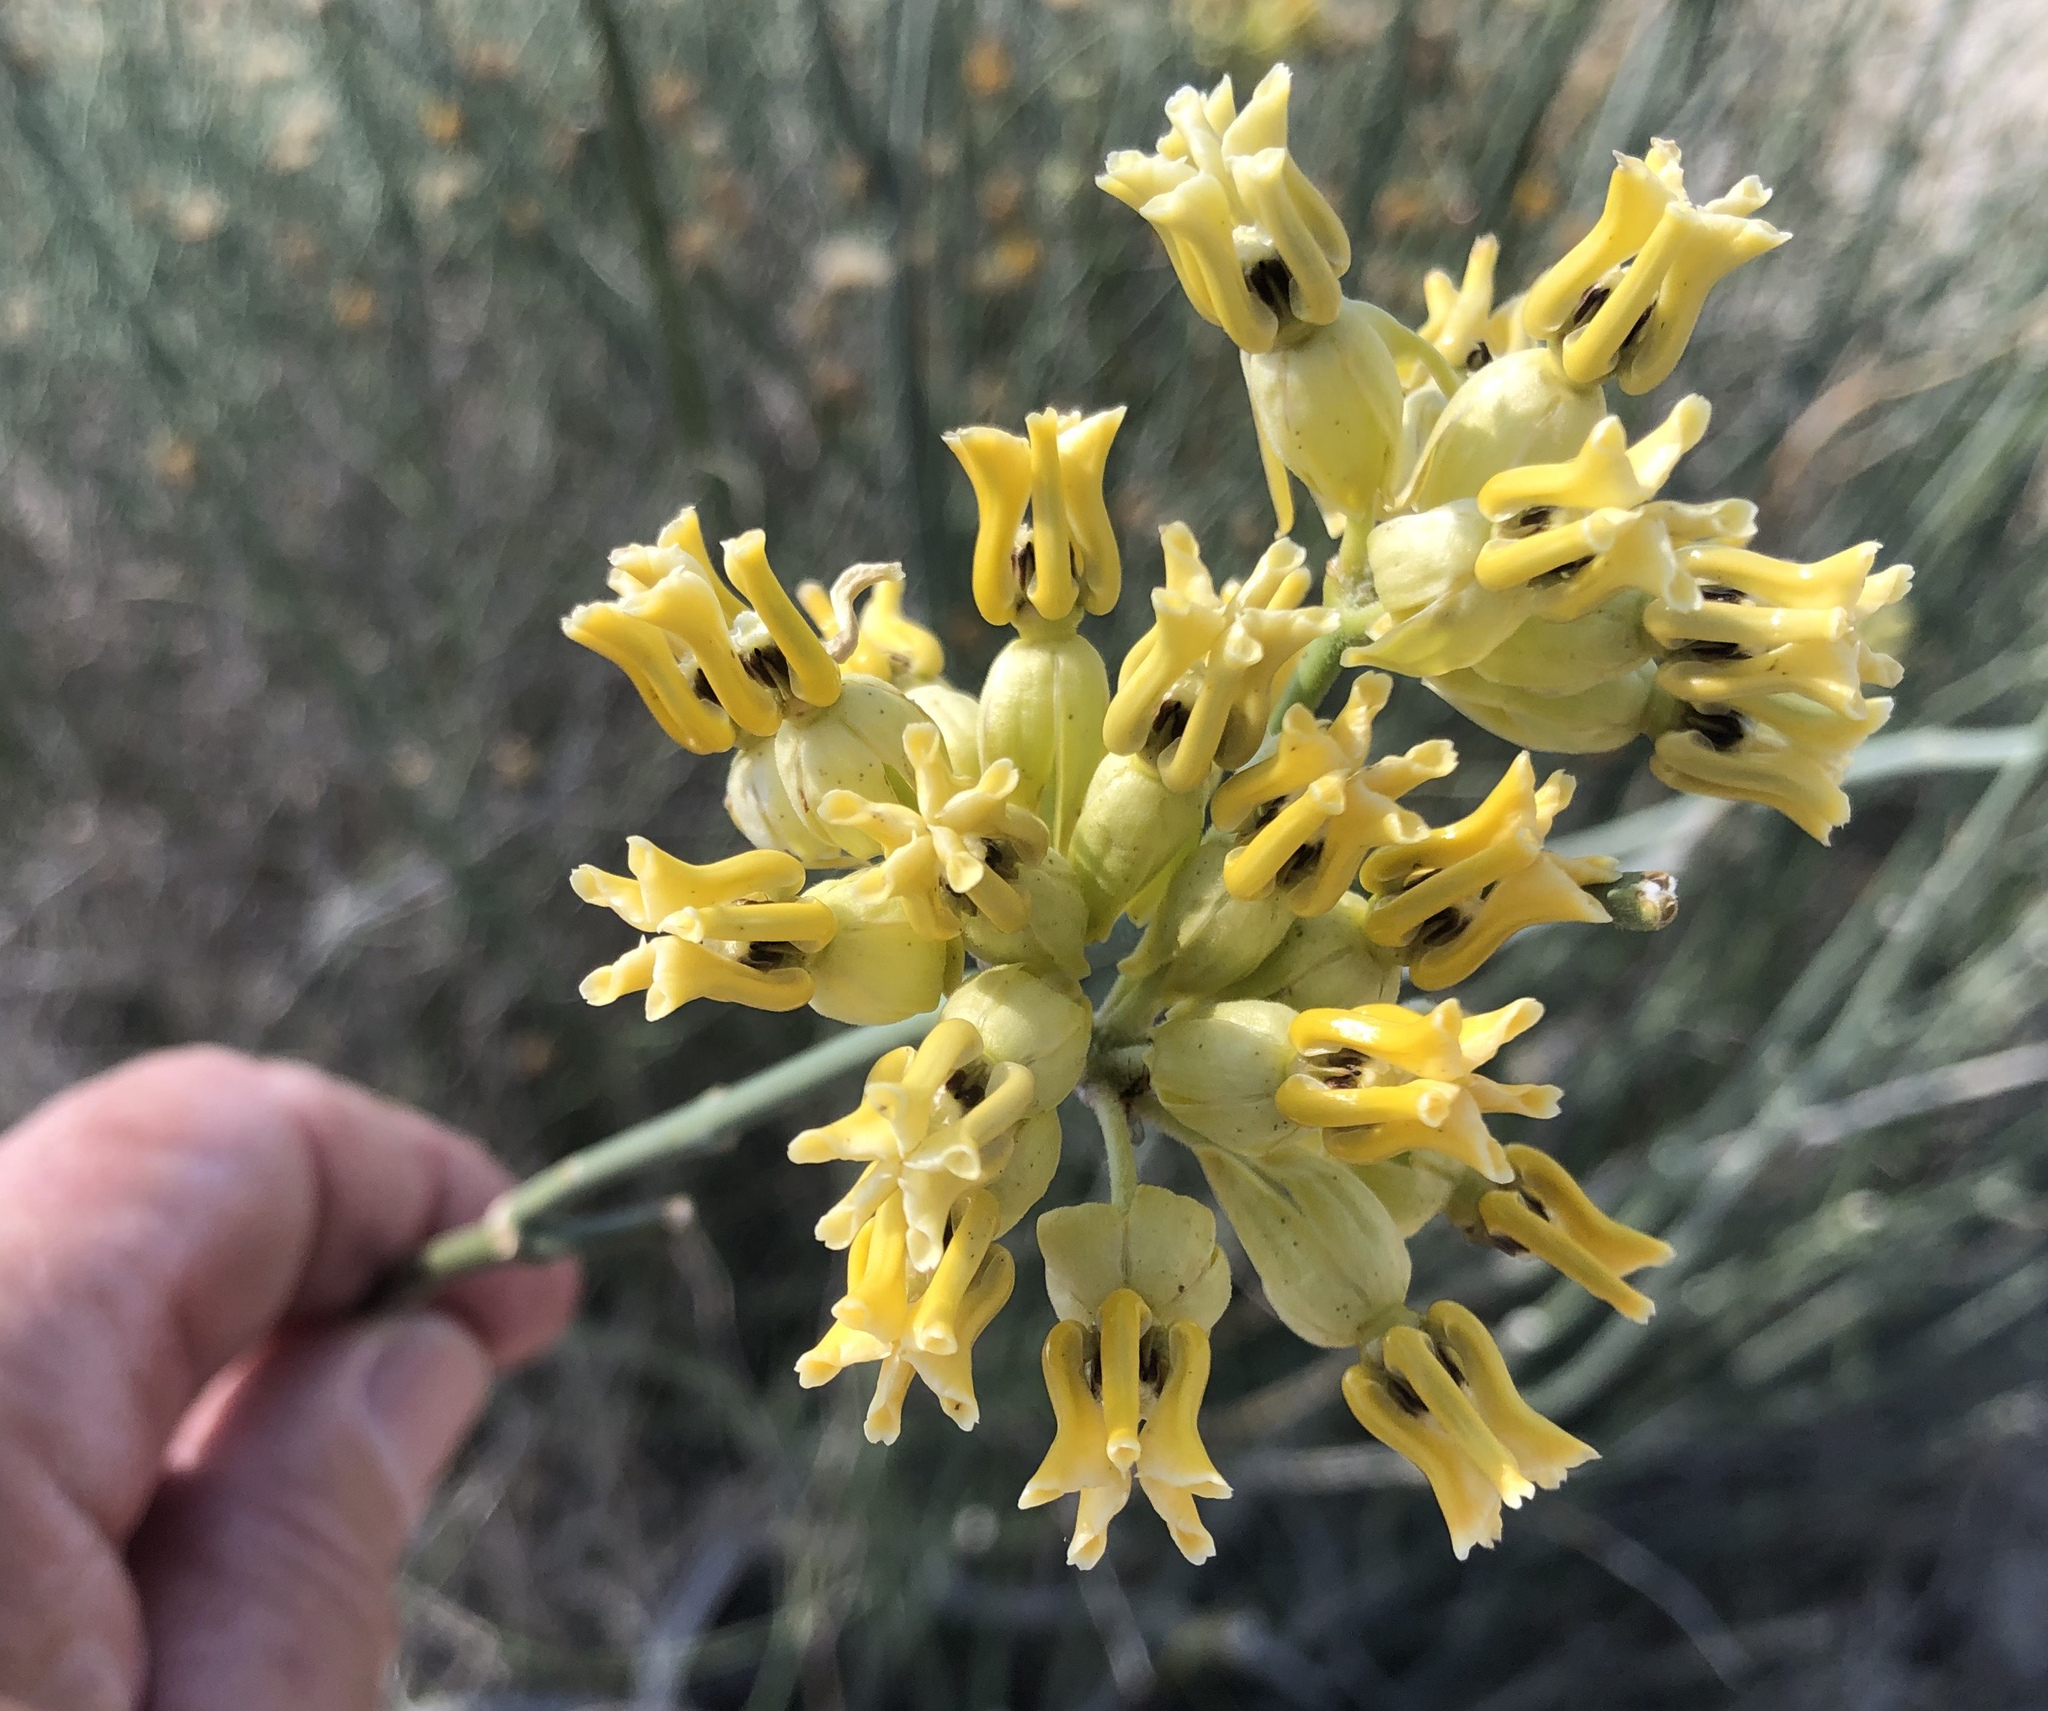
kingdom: Plantae
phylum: Tracheophyta
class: Magnoliopsida
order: Gentianales
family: Apocynaceae
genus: Asclepias
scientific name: Asclepias subulata
